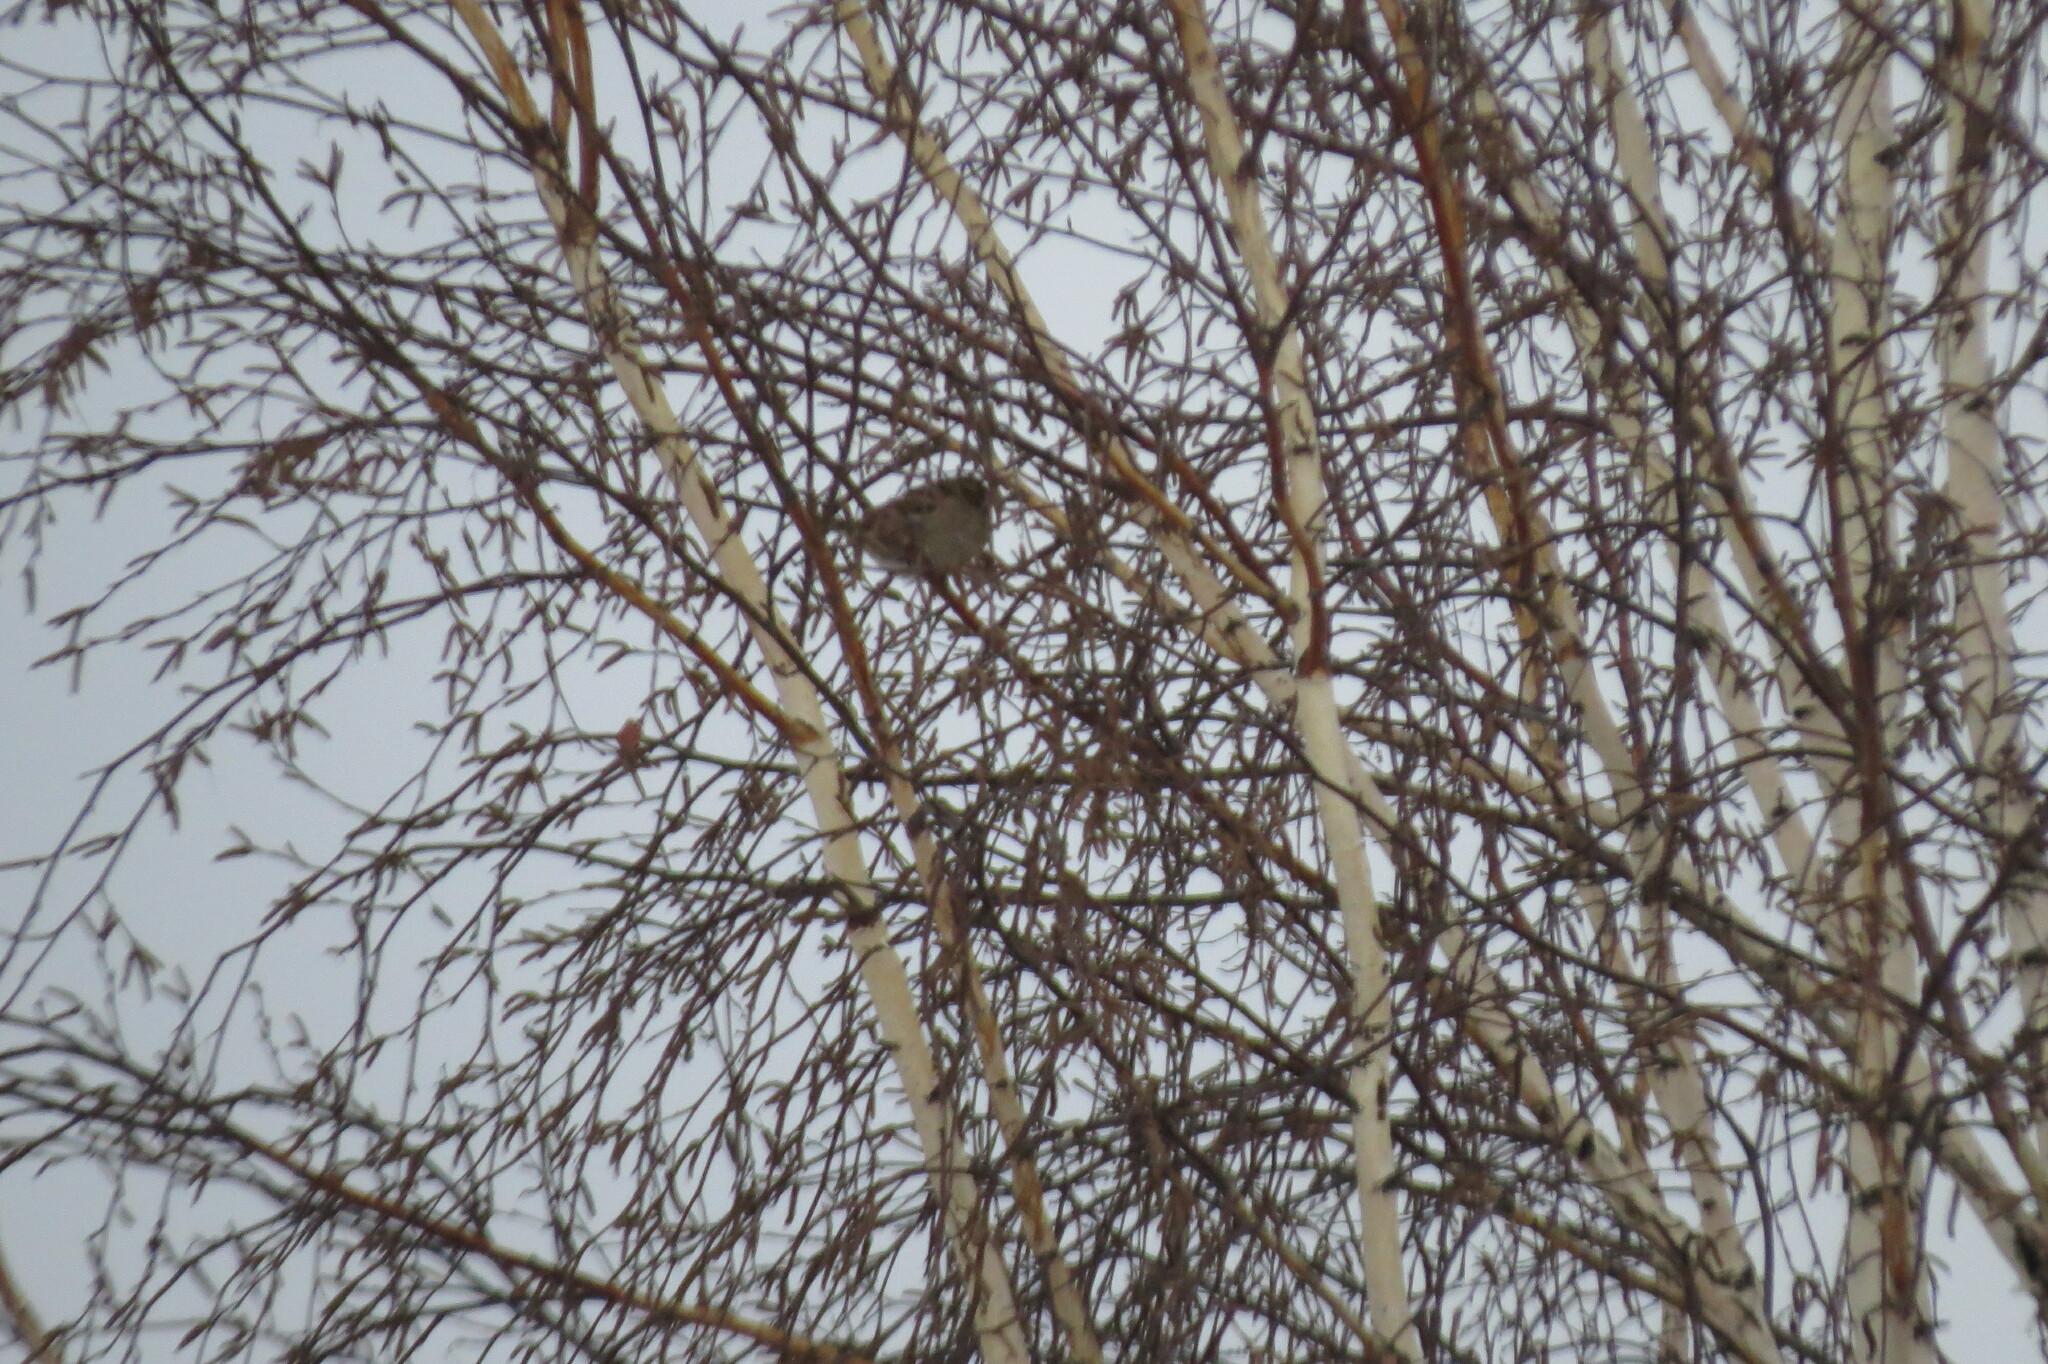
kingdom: Animalia
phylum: Chordata
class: Aves
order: Passeriformes
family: Passeridae
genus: Passer
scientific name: Passer domesticus
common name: House sparrow
